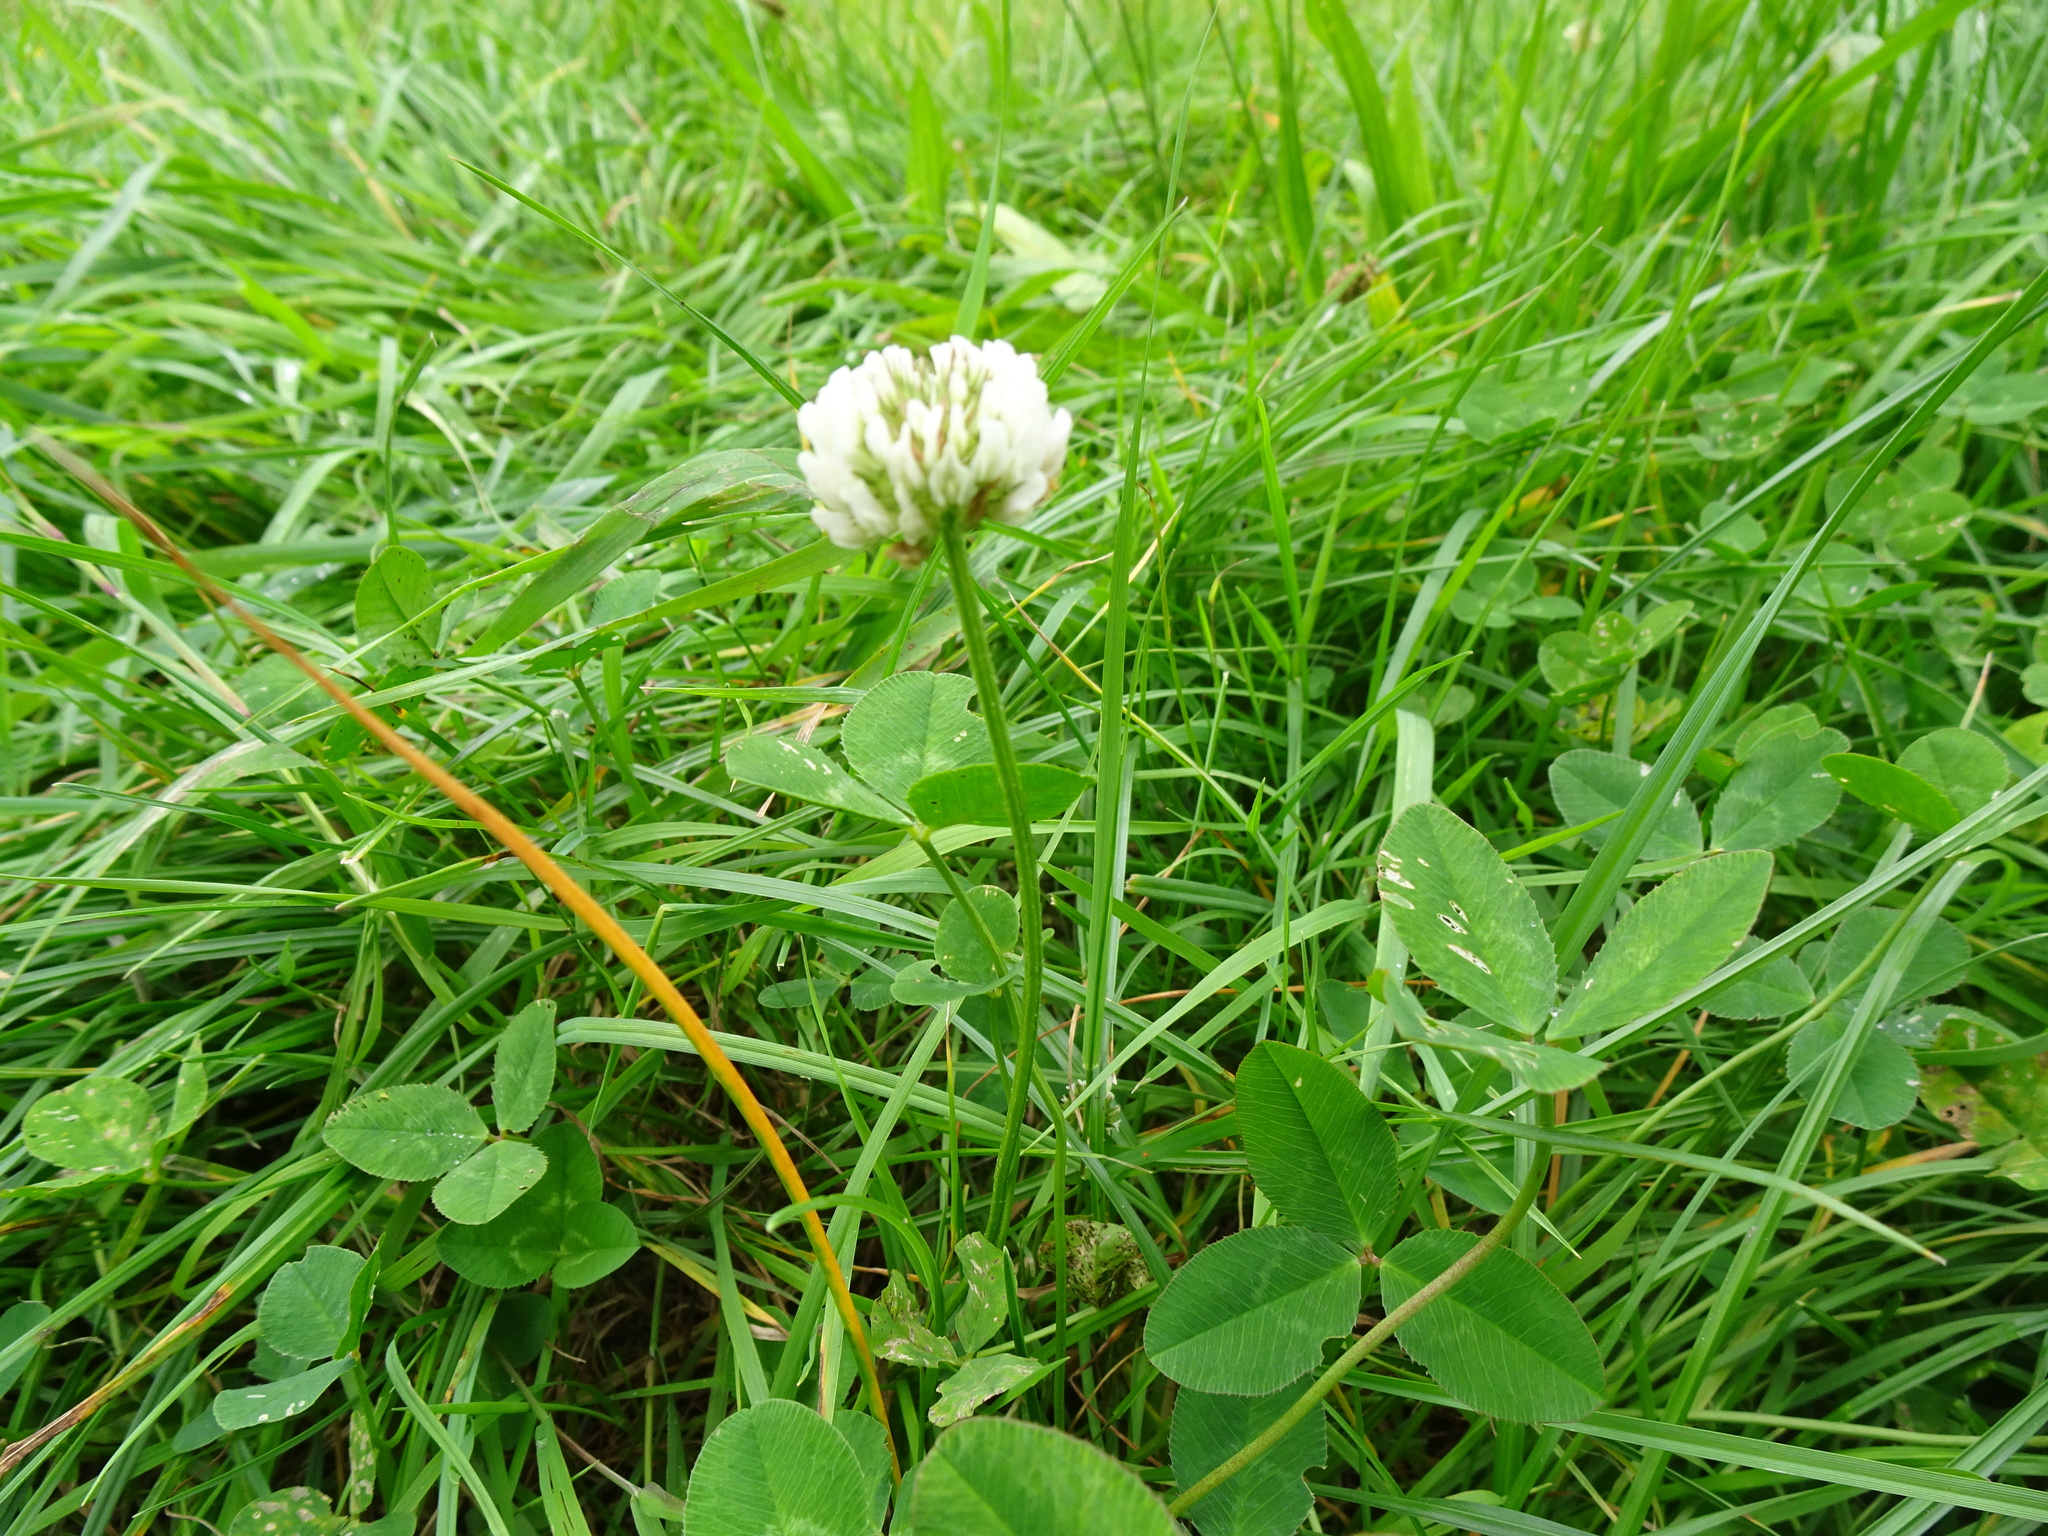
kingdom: Plantae
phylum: Tracheophyta
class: Magnoliopsida
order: Fabales
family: Fabaceae
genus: Trifolium
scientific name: Trifolium repens
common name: White clover
